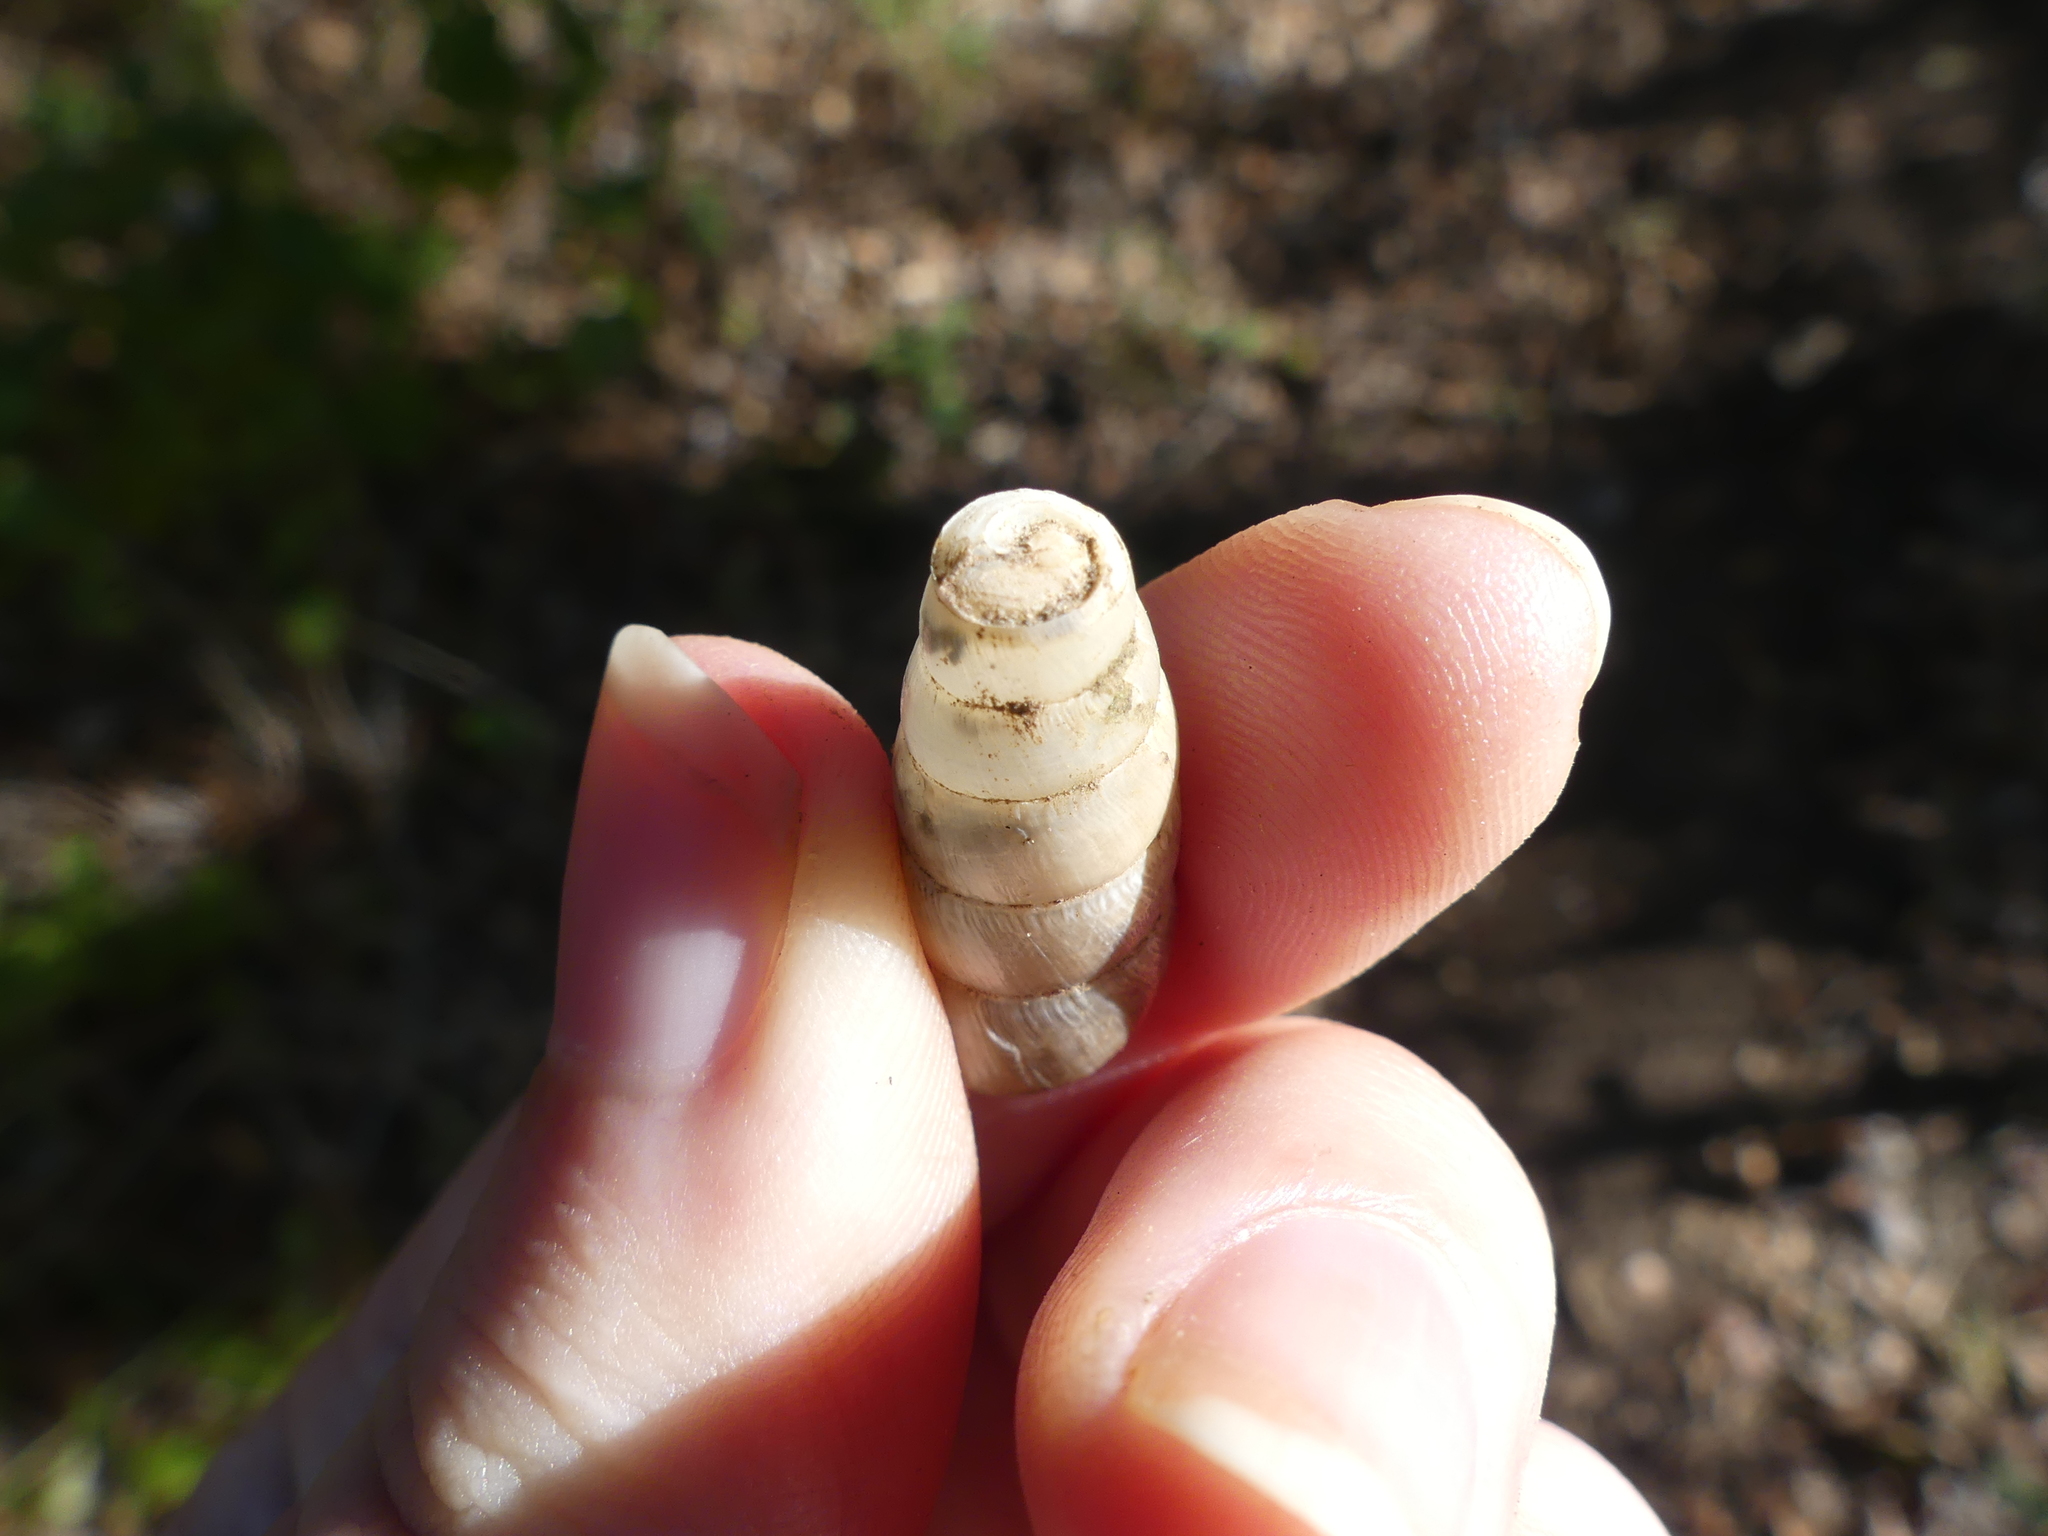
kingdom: Animalia
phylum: Mollusca
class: Gastropoda
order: Stylommatophora
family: Achatinidae
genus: Rumina
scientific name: Rumina decollata
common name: Decollate snail
